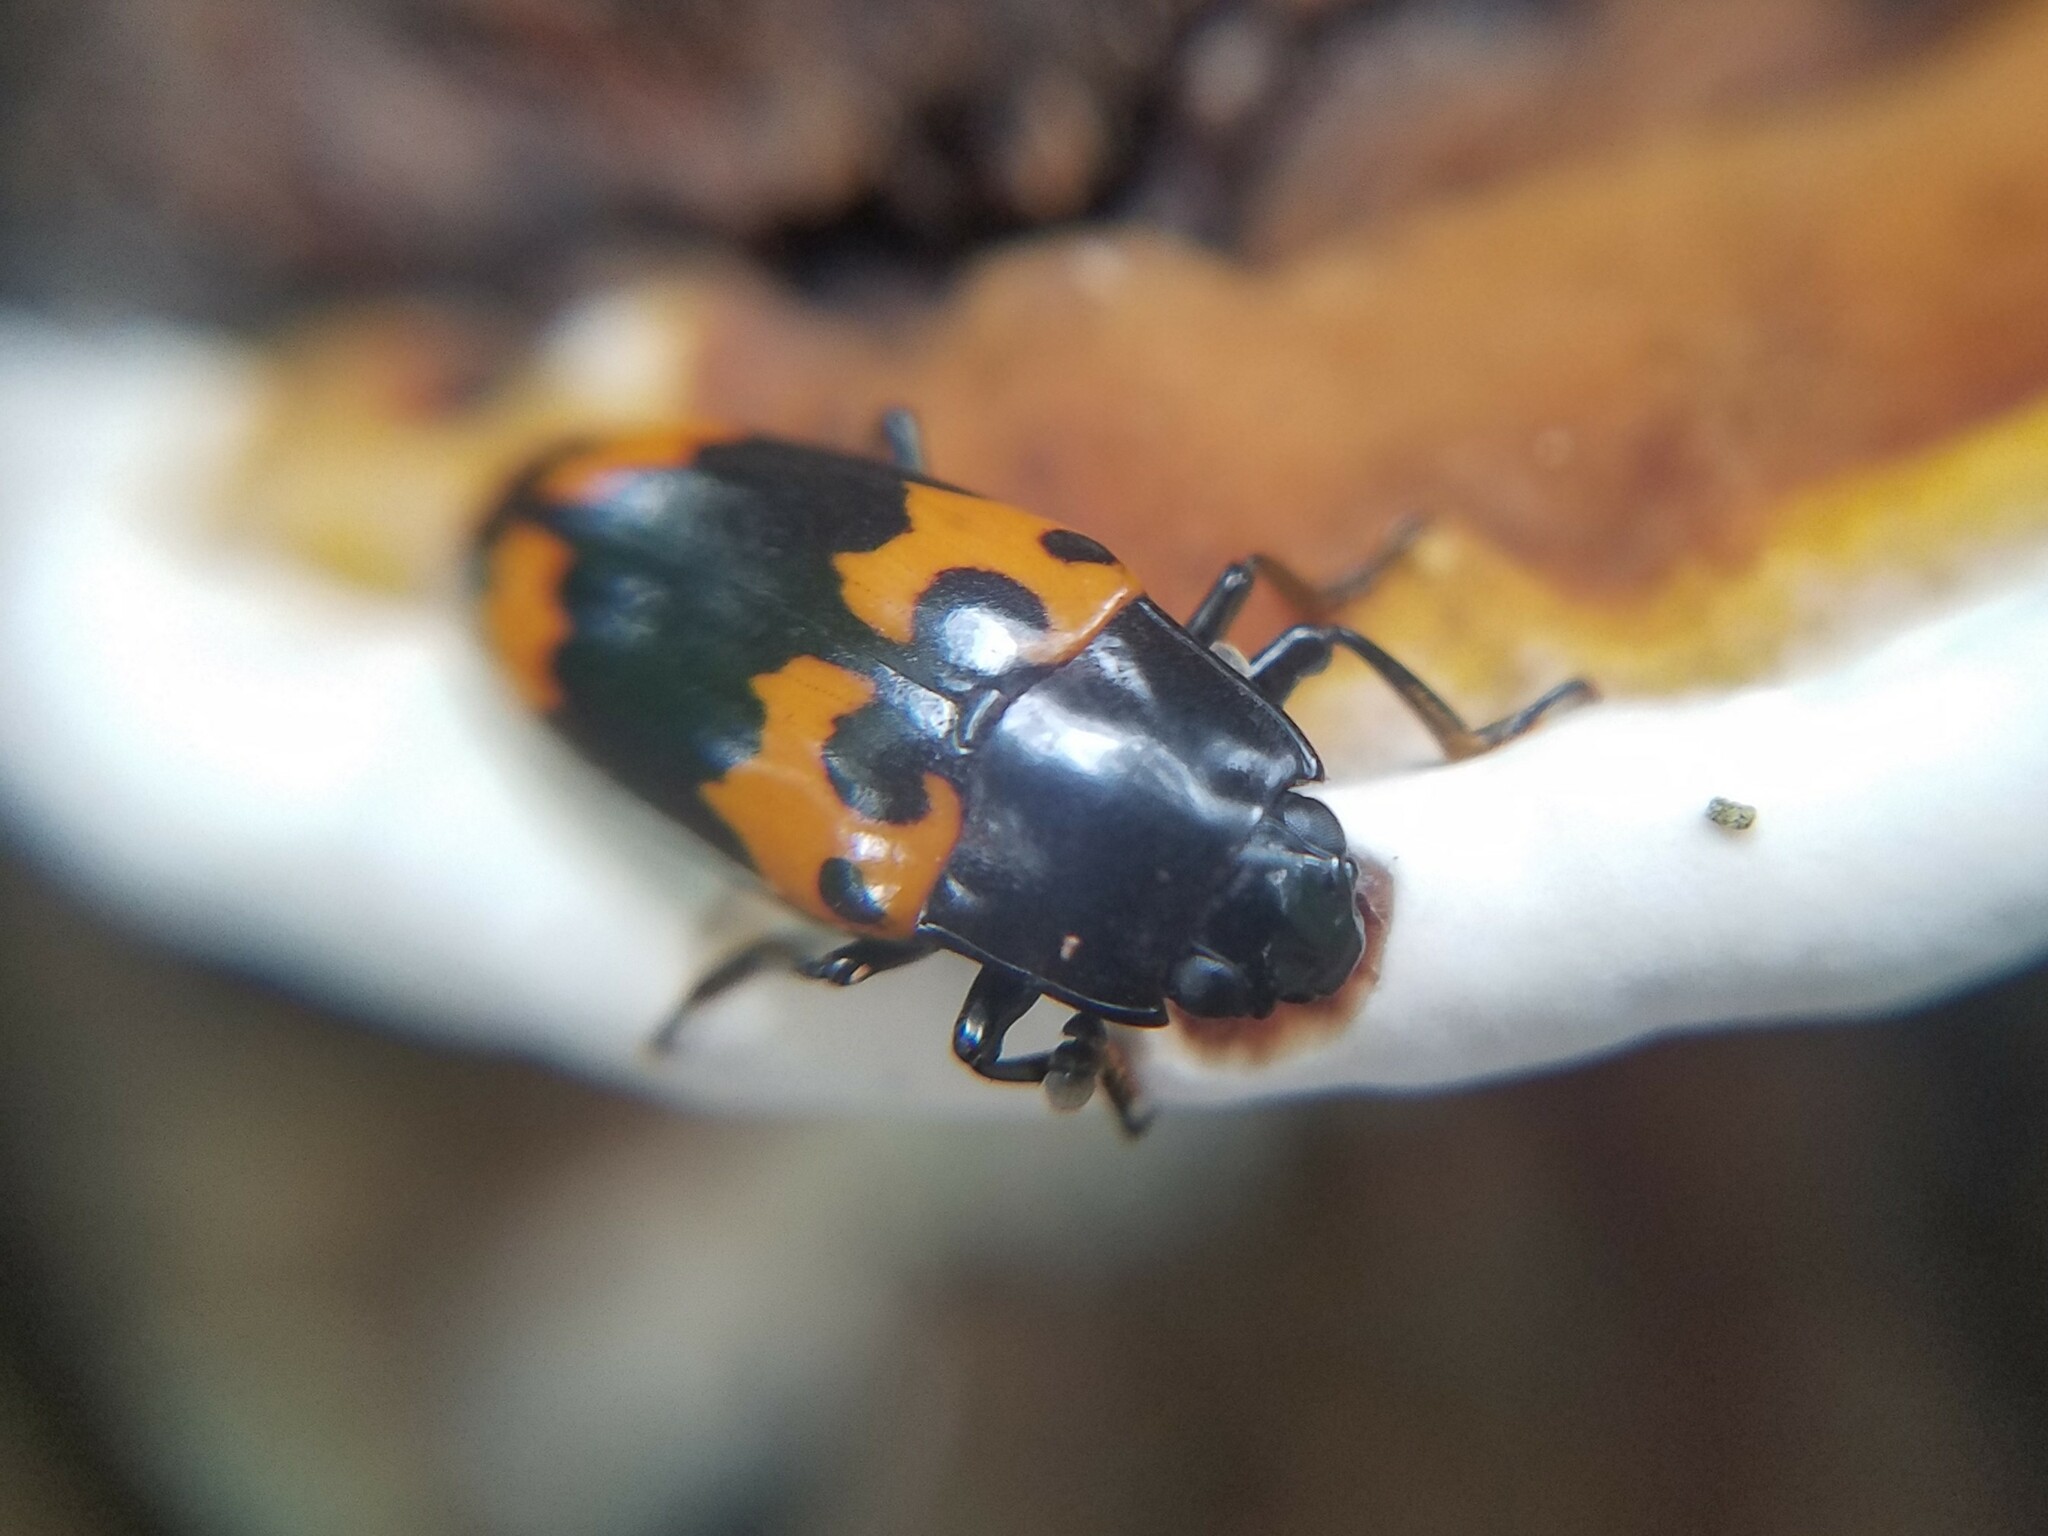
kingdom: Animalia
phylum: Arthropoda
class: Insecta
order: Coleoptera
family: Erotylidae
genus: Megalodacne
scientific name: Megalodacne heros
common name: Pleasing fungus beetle
